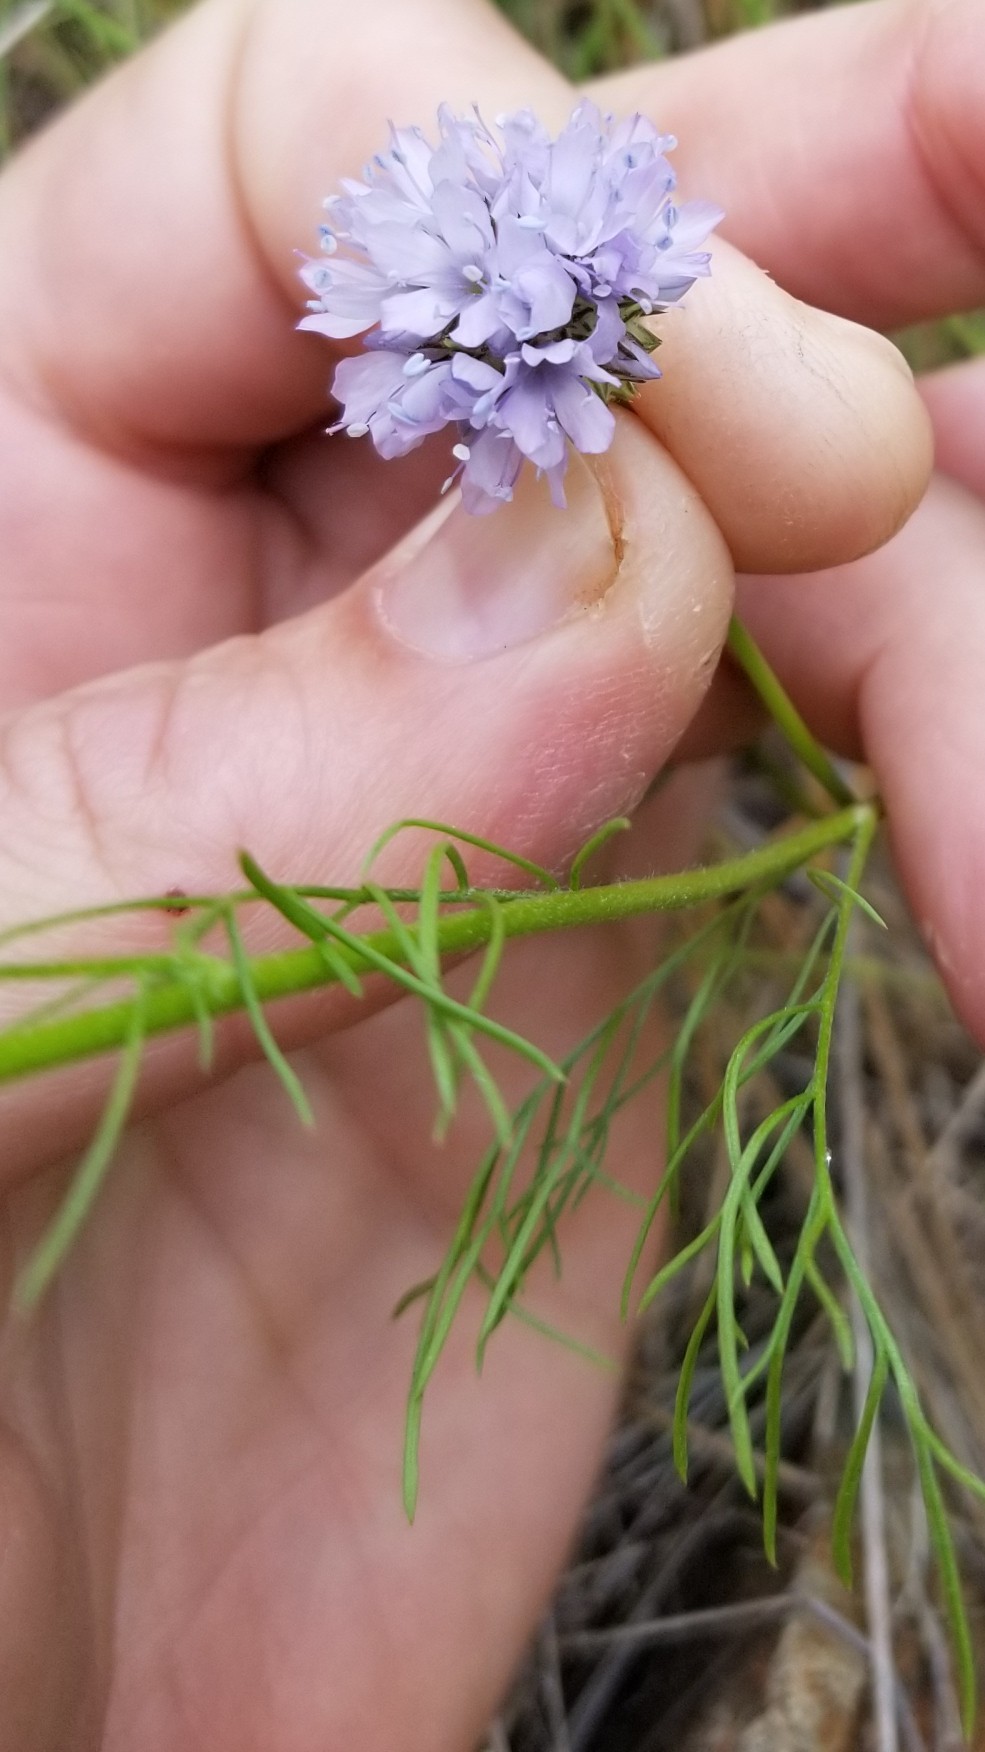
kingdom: Plantae
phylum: Tracheophyta
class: Magnoliopsida
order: Ericales
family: Polemoniaceae
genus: Gilia
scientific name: Gilia capitata
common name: Bluehead gilia
